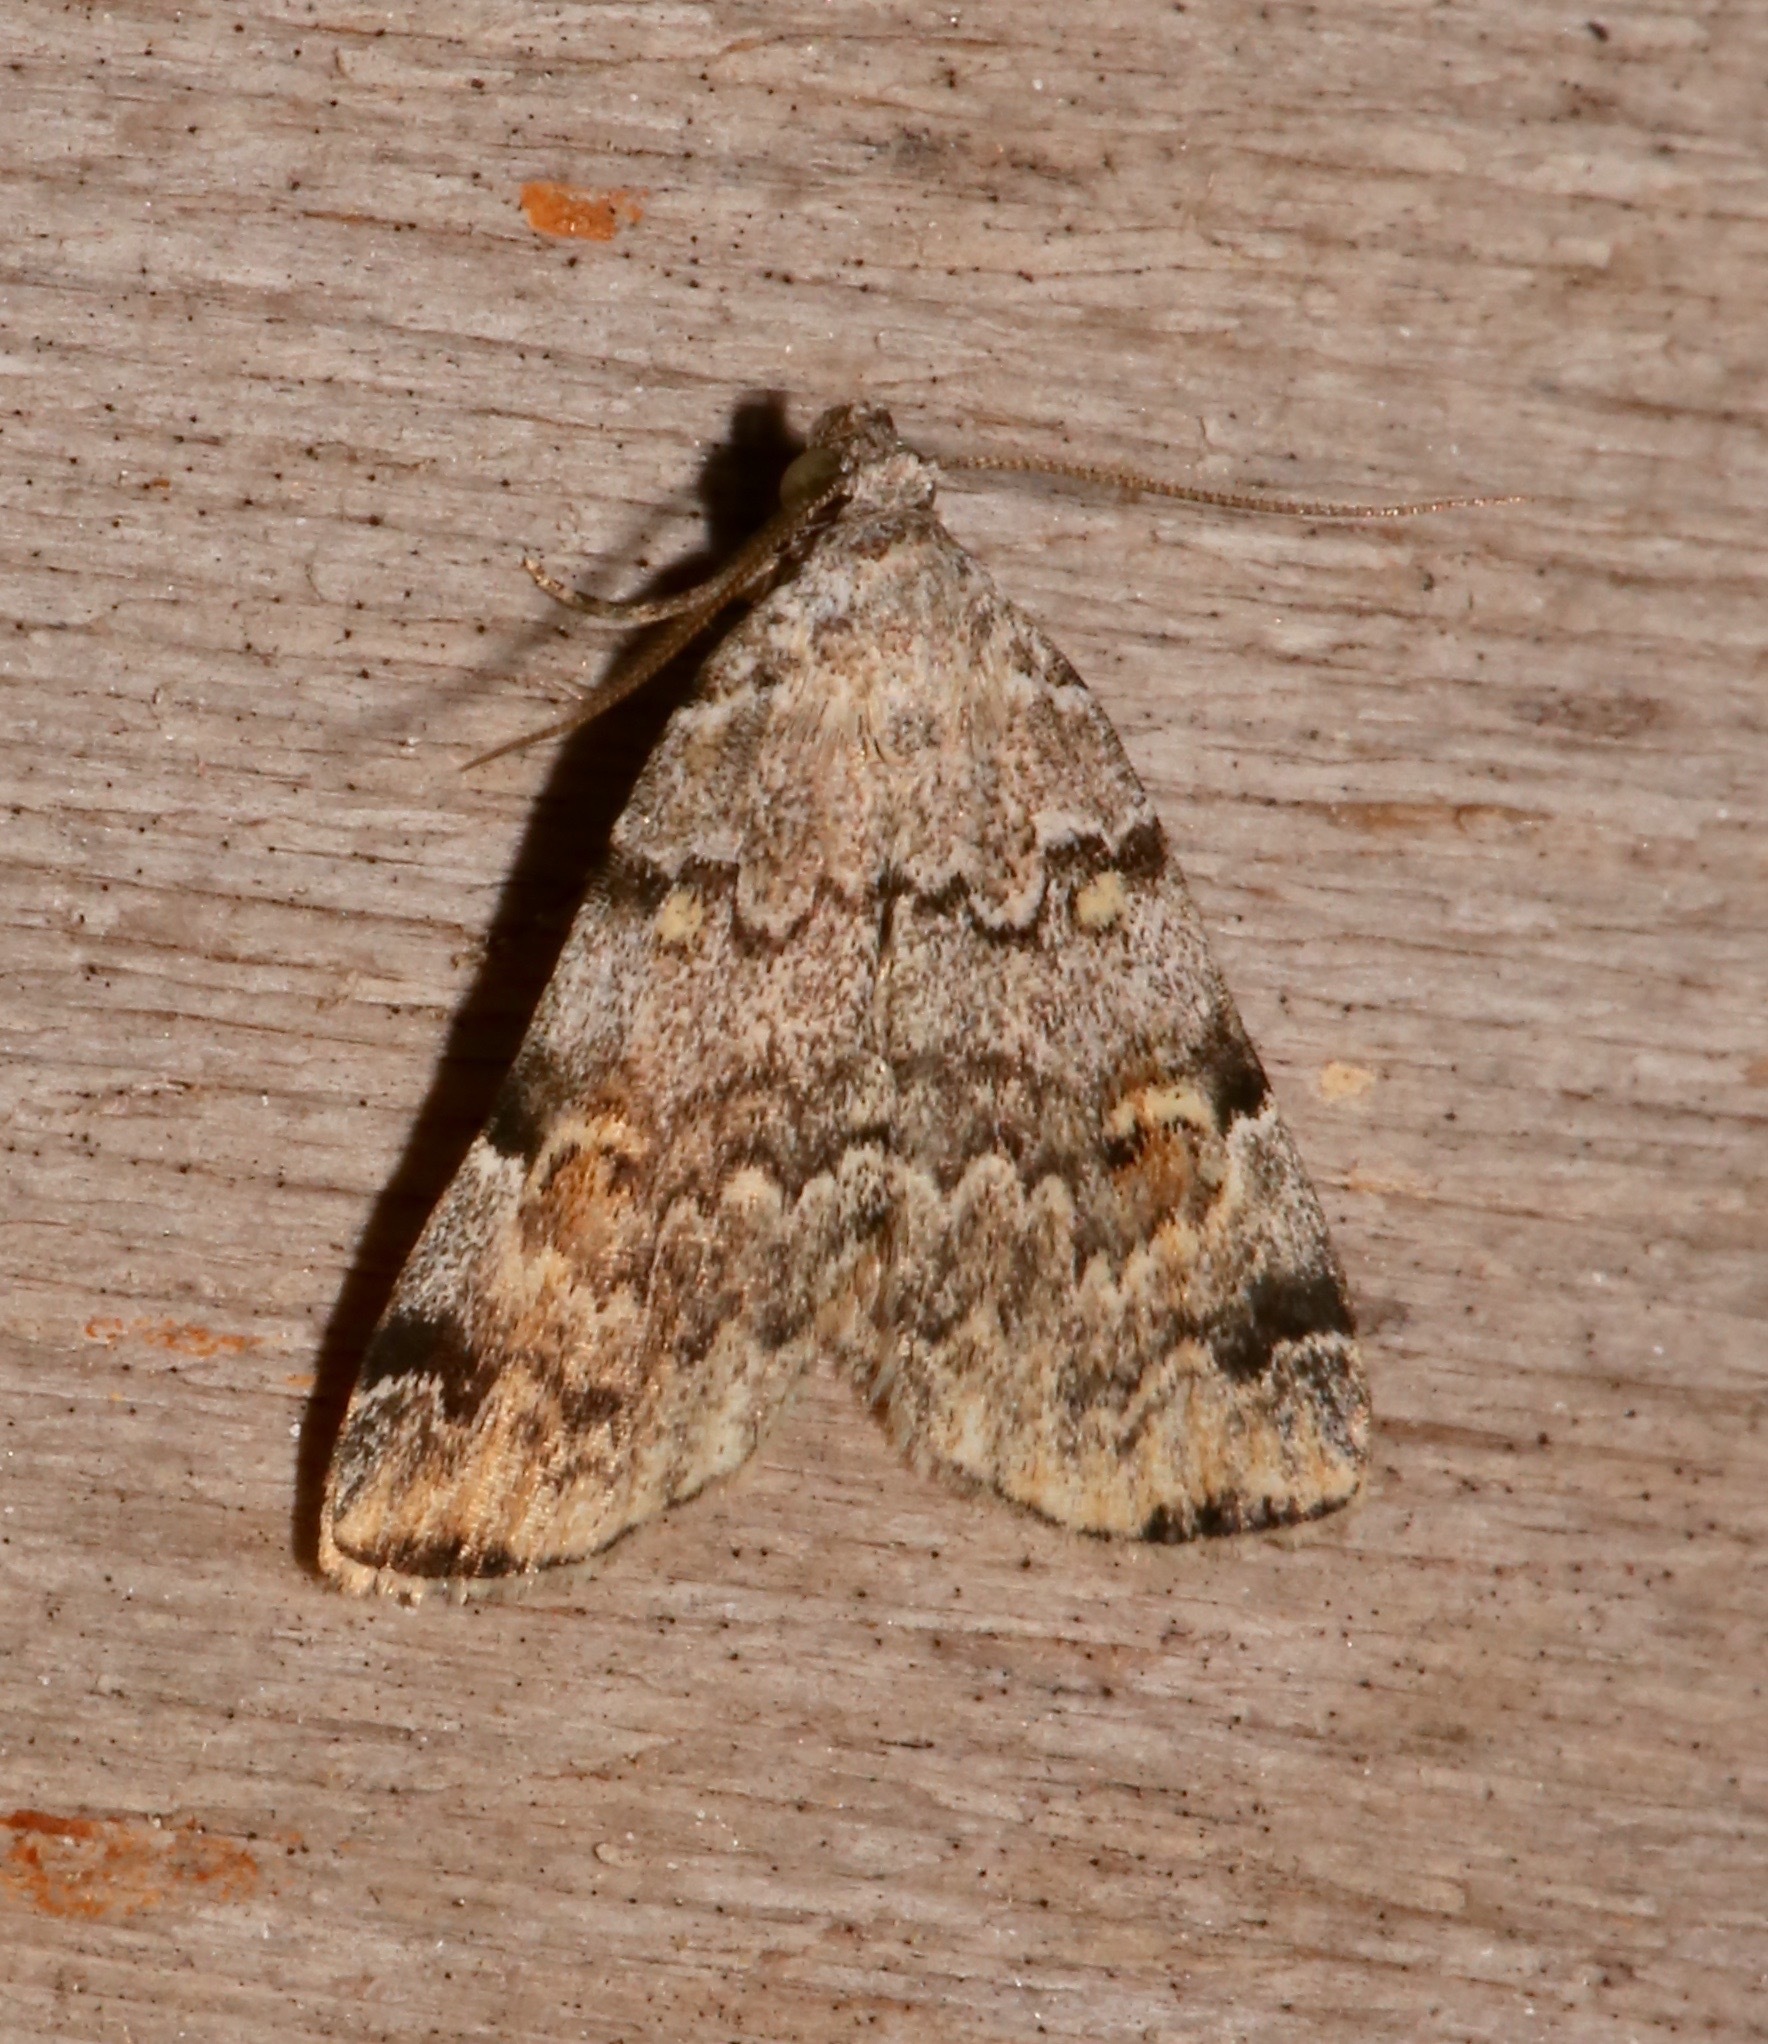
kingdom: Animalia
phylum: Arthropoda
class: Insecta
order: Lepidoptera
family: Erebidae
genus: Idia
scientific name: Idia americalis
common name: American idia moth
